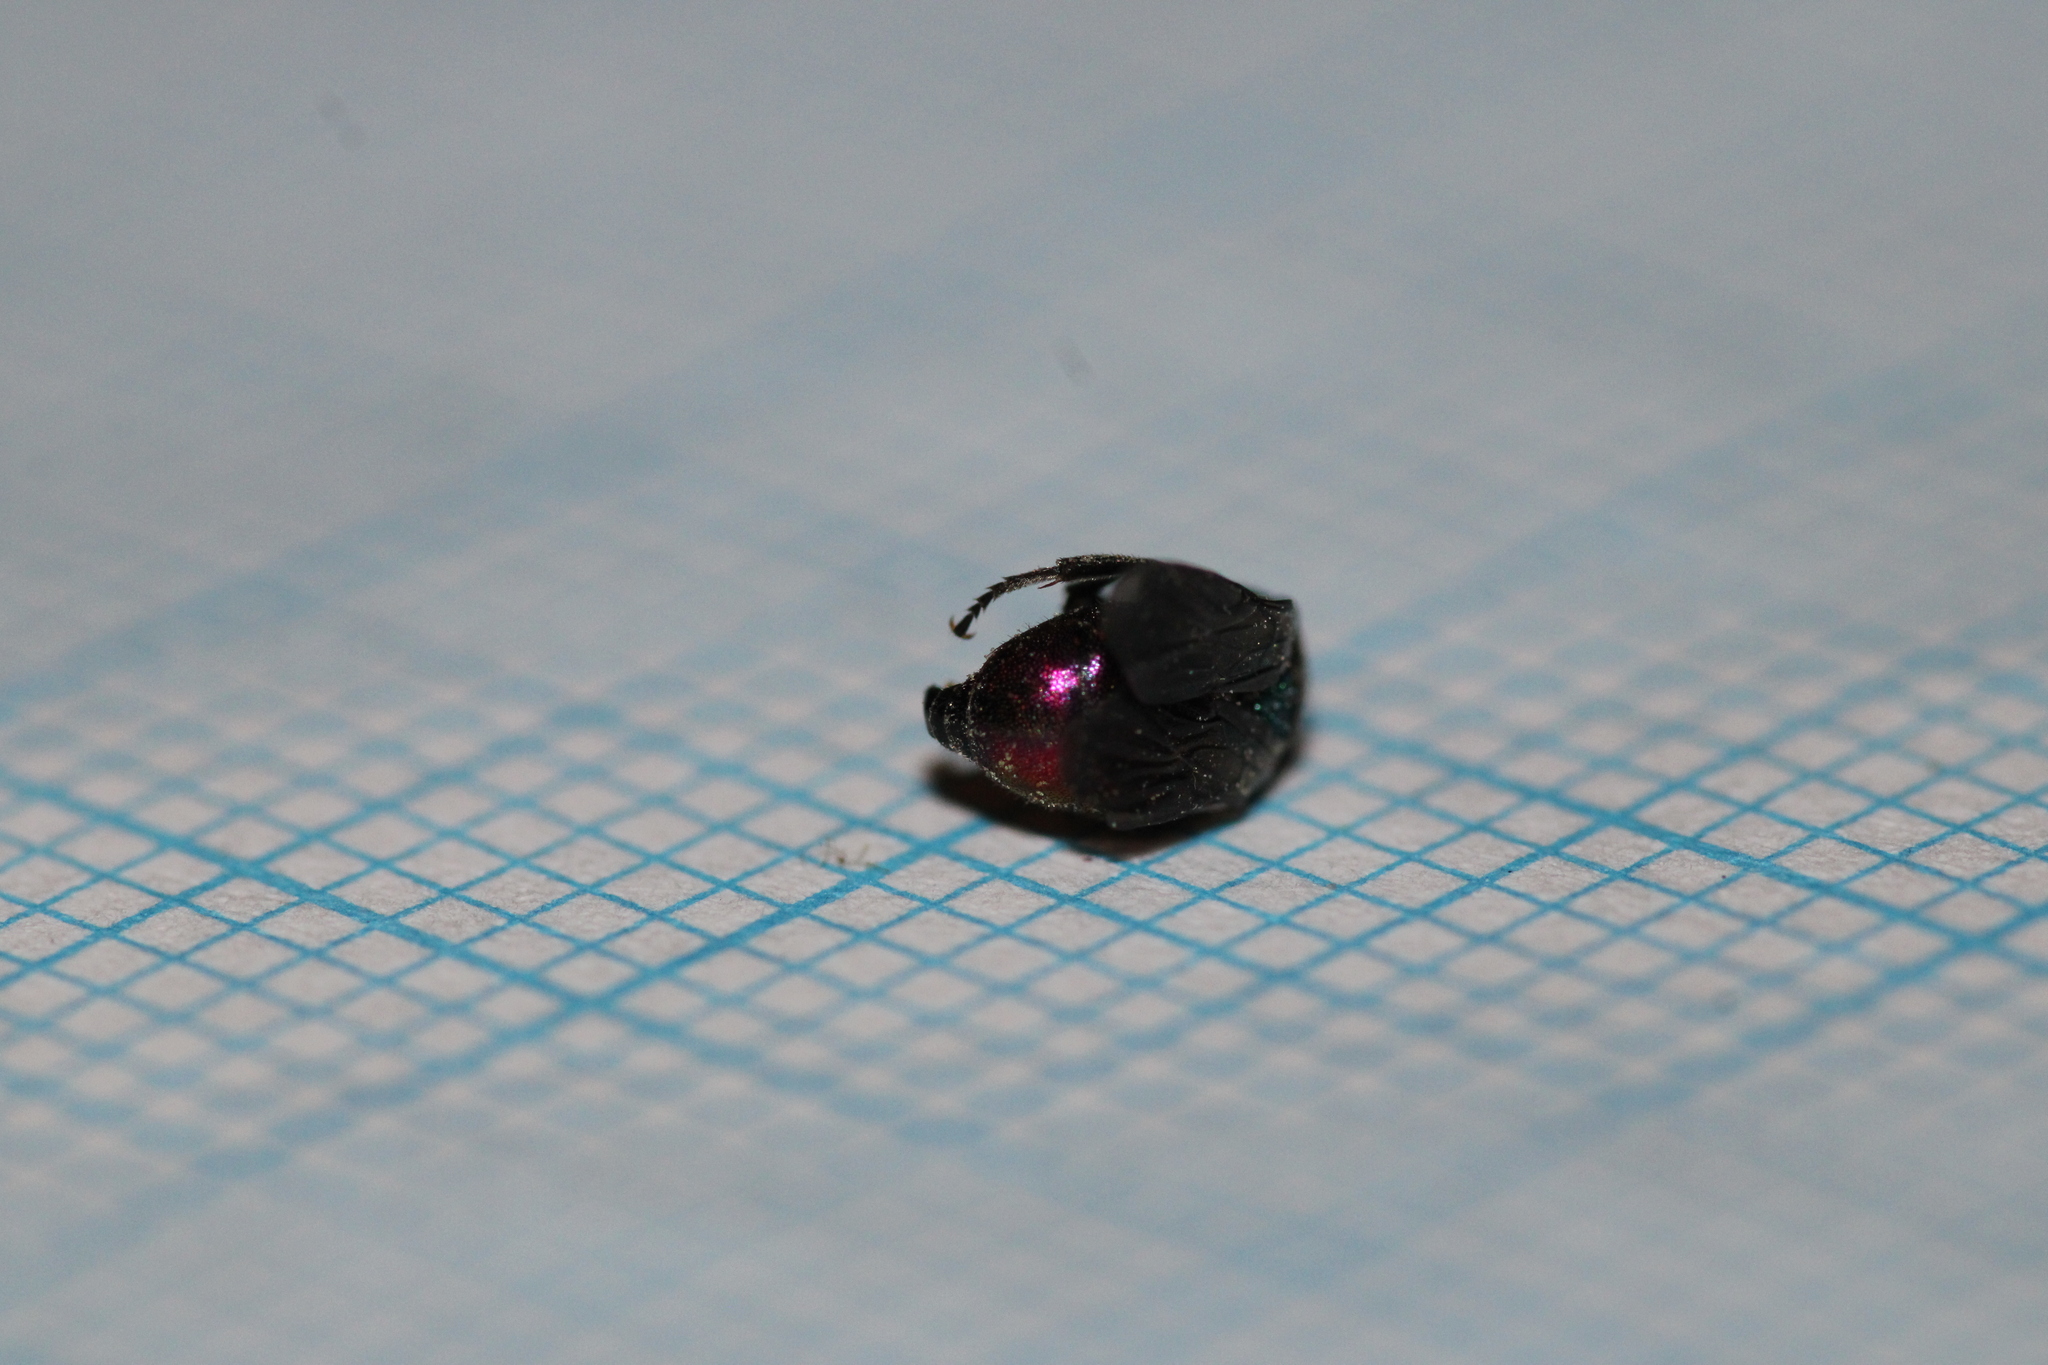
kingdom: Animalia
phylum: Arthropoda
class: Insecta
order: Hymenoptera
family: Chrysididae
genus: Holopyga
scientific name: Holopyga fervida
